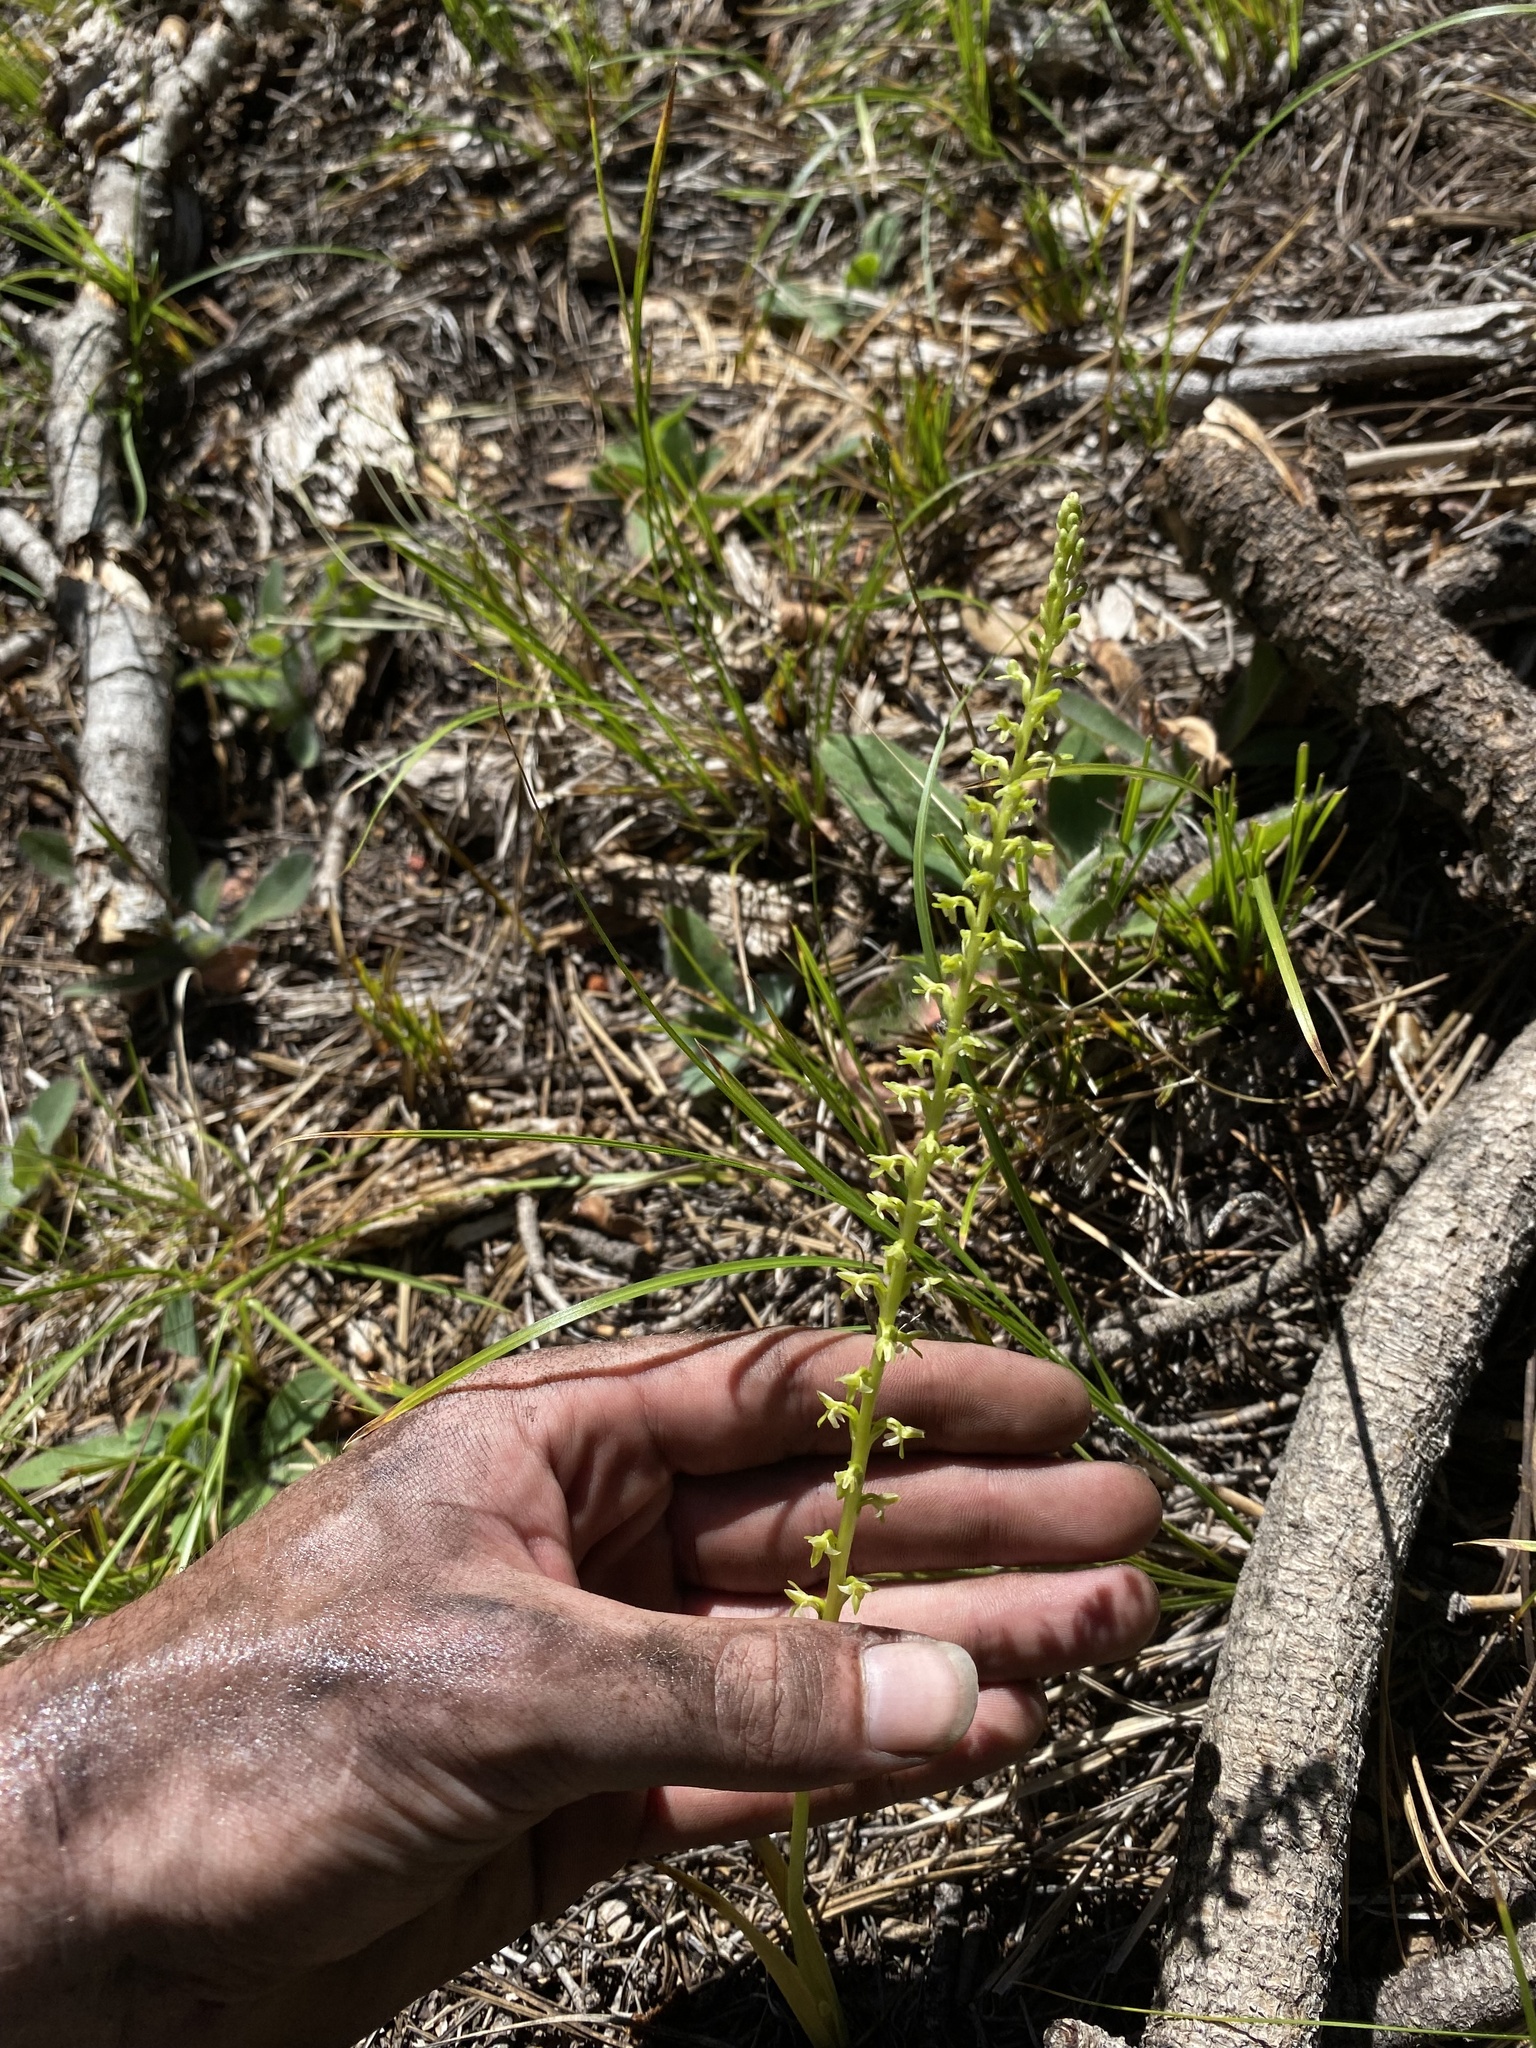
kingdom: Plantae
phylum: Tracheophyta
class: Liliopsida
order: Asparagales
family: Orchidaceae
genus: Platanthera
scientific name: Platanthera unalascensis
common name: Alaska bog orchid
